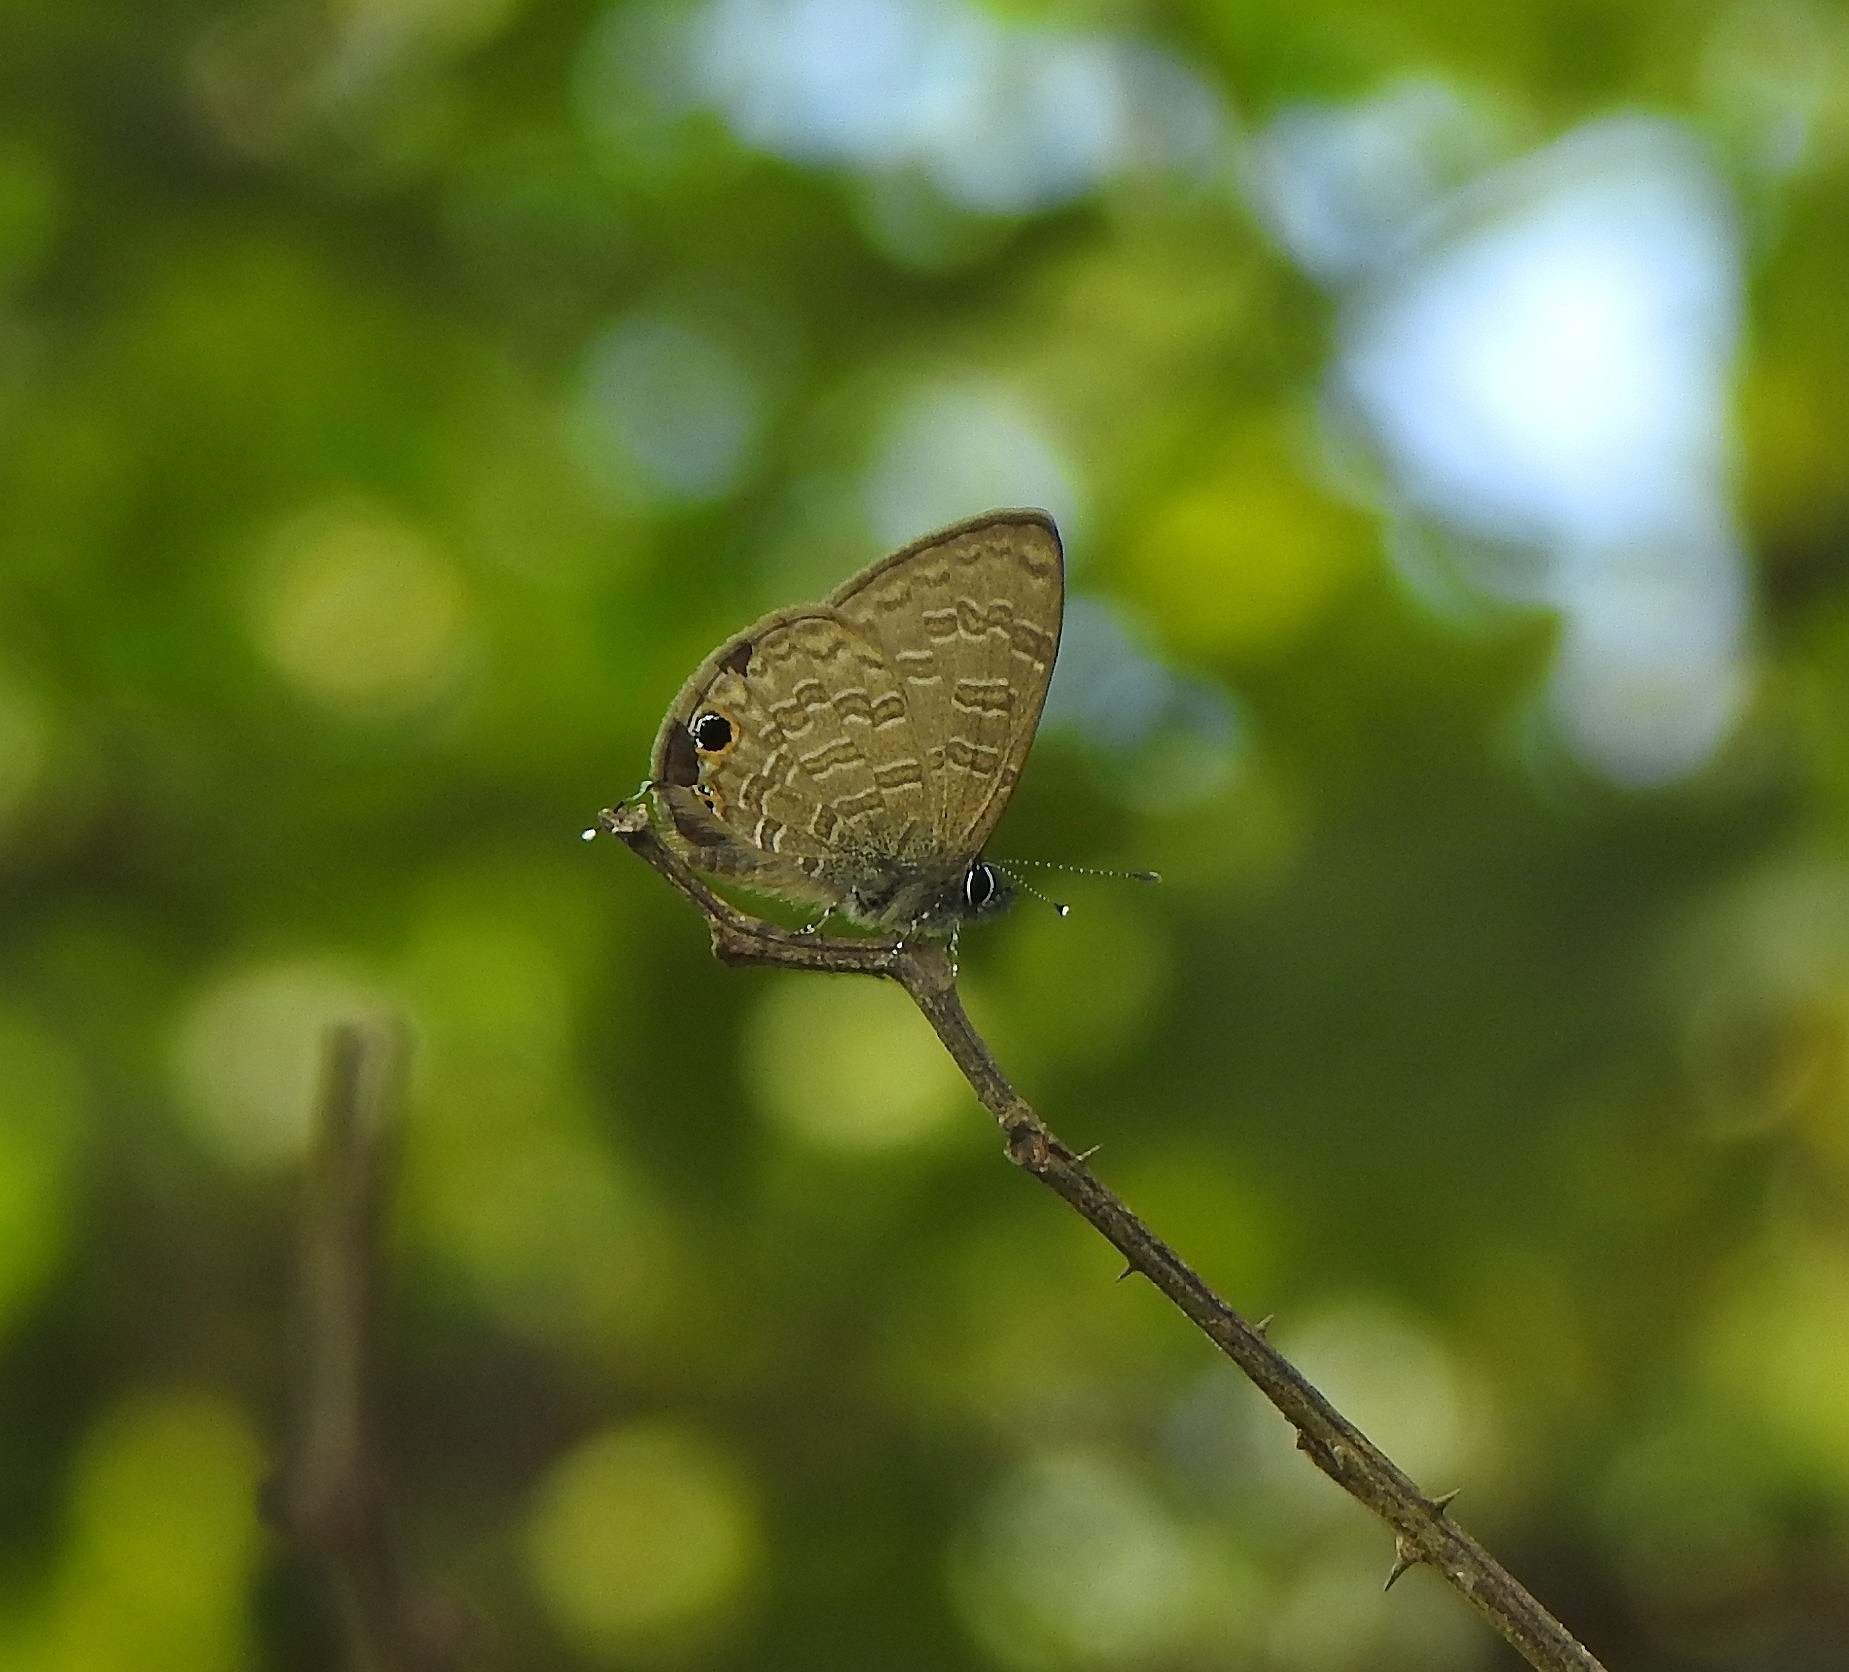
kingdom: Animalia
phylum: Arthropoda
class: Insecta
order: Lepidoptera
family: Lycaenidae
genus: Prosotas
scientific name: Prosotas nora
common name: Common line blue
